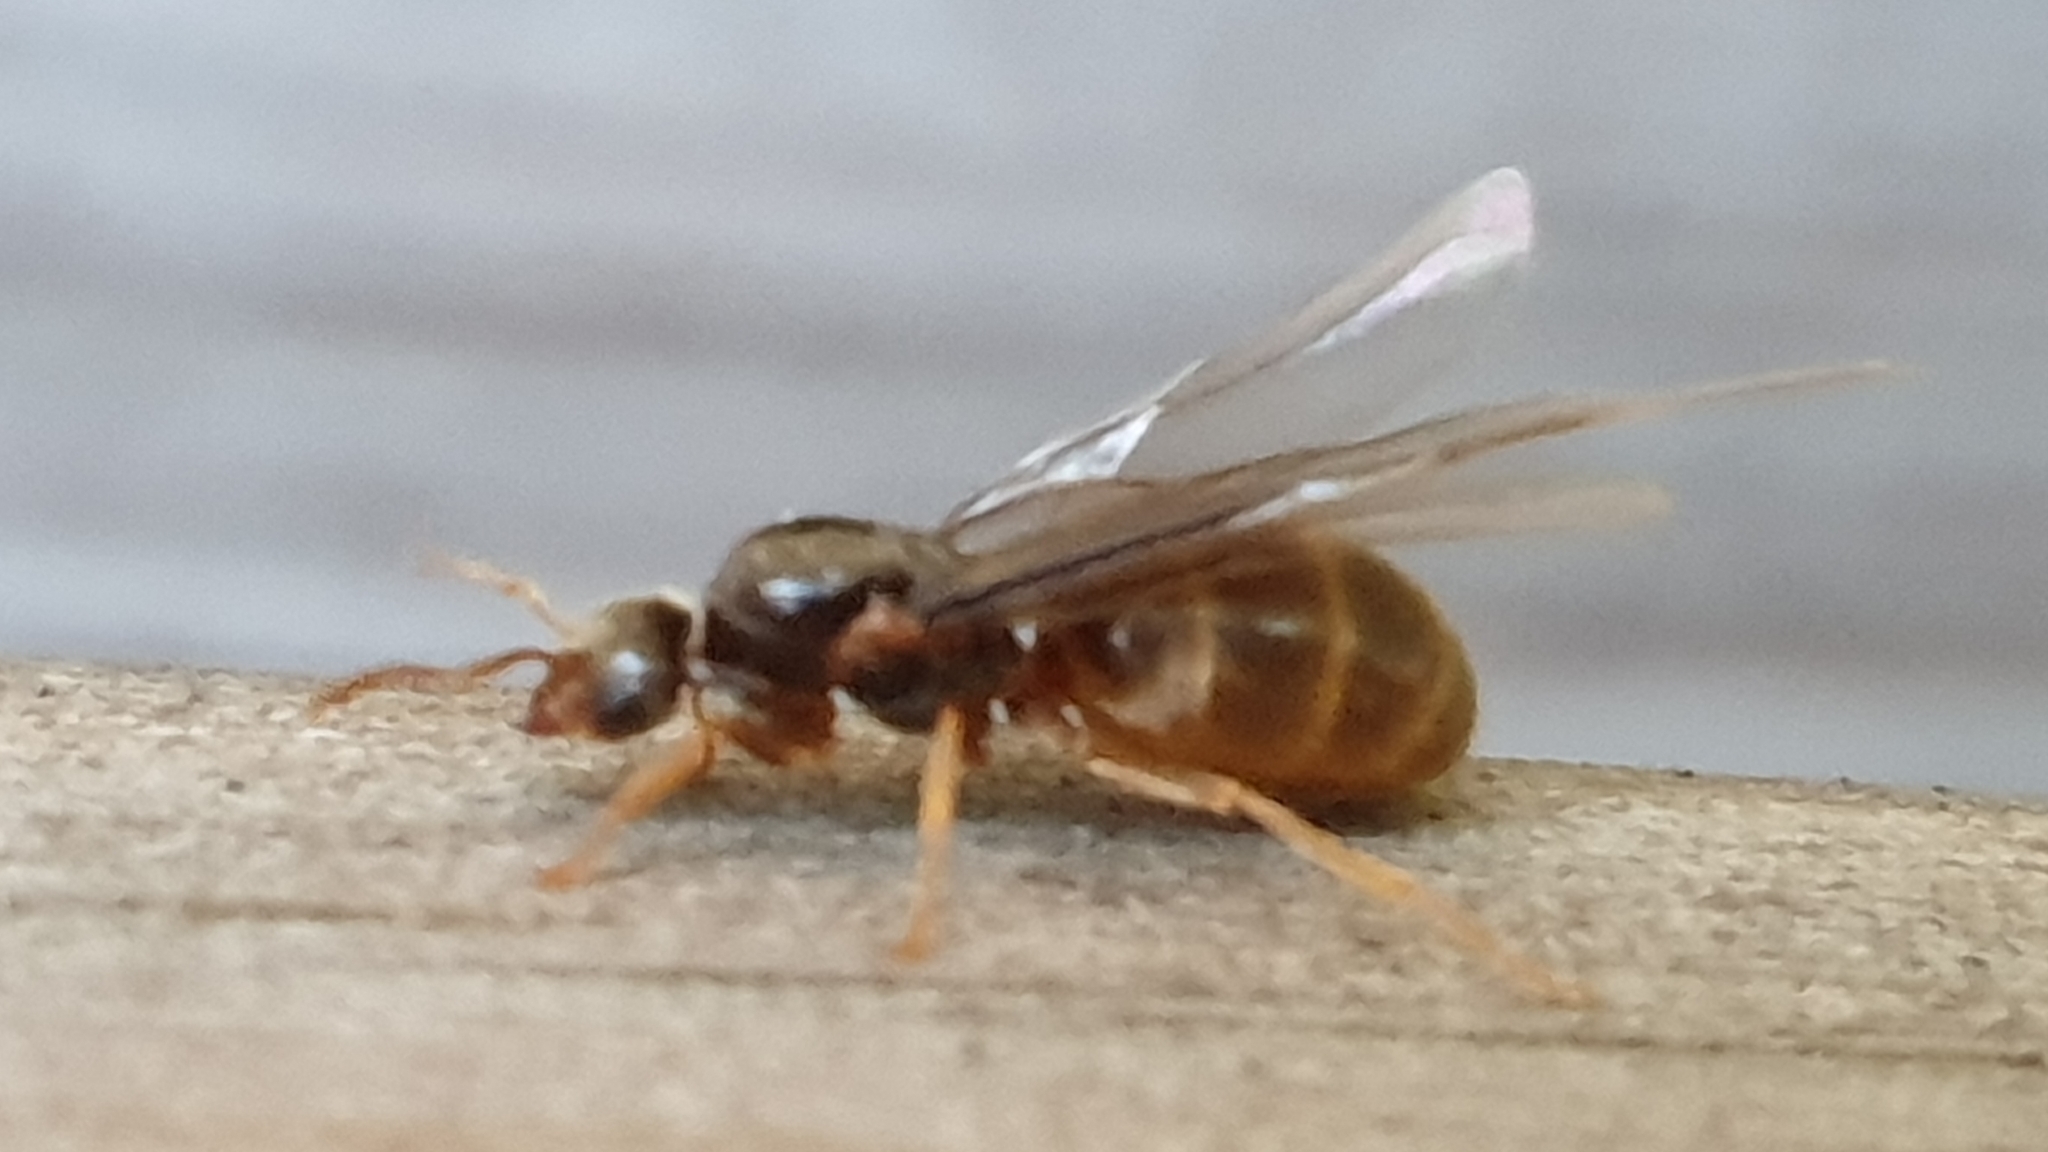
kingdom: Animalia
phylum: Arthropoda
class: Insecta
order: Hymenoptera
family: Formicidae
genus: Lasius
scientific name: Lasius flavus
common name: Blond field ant
